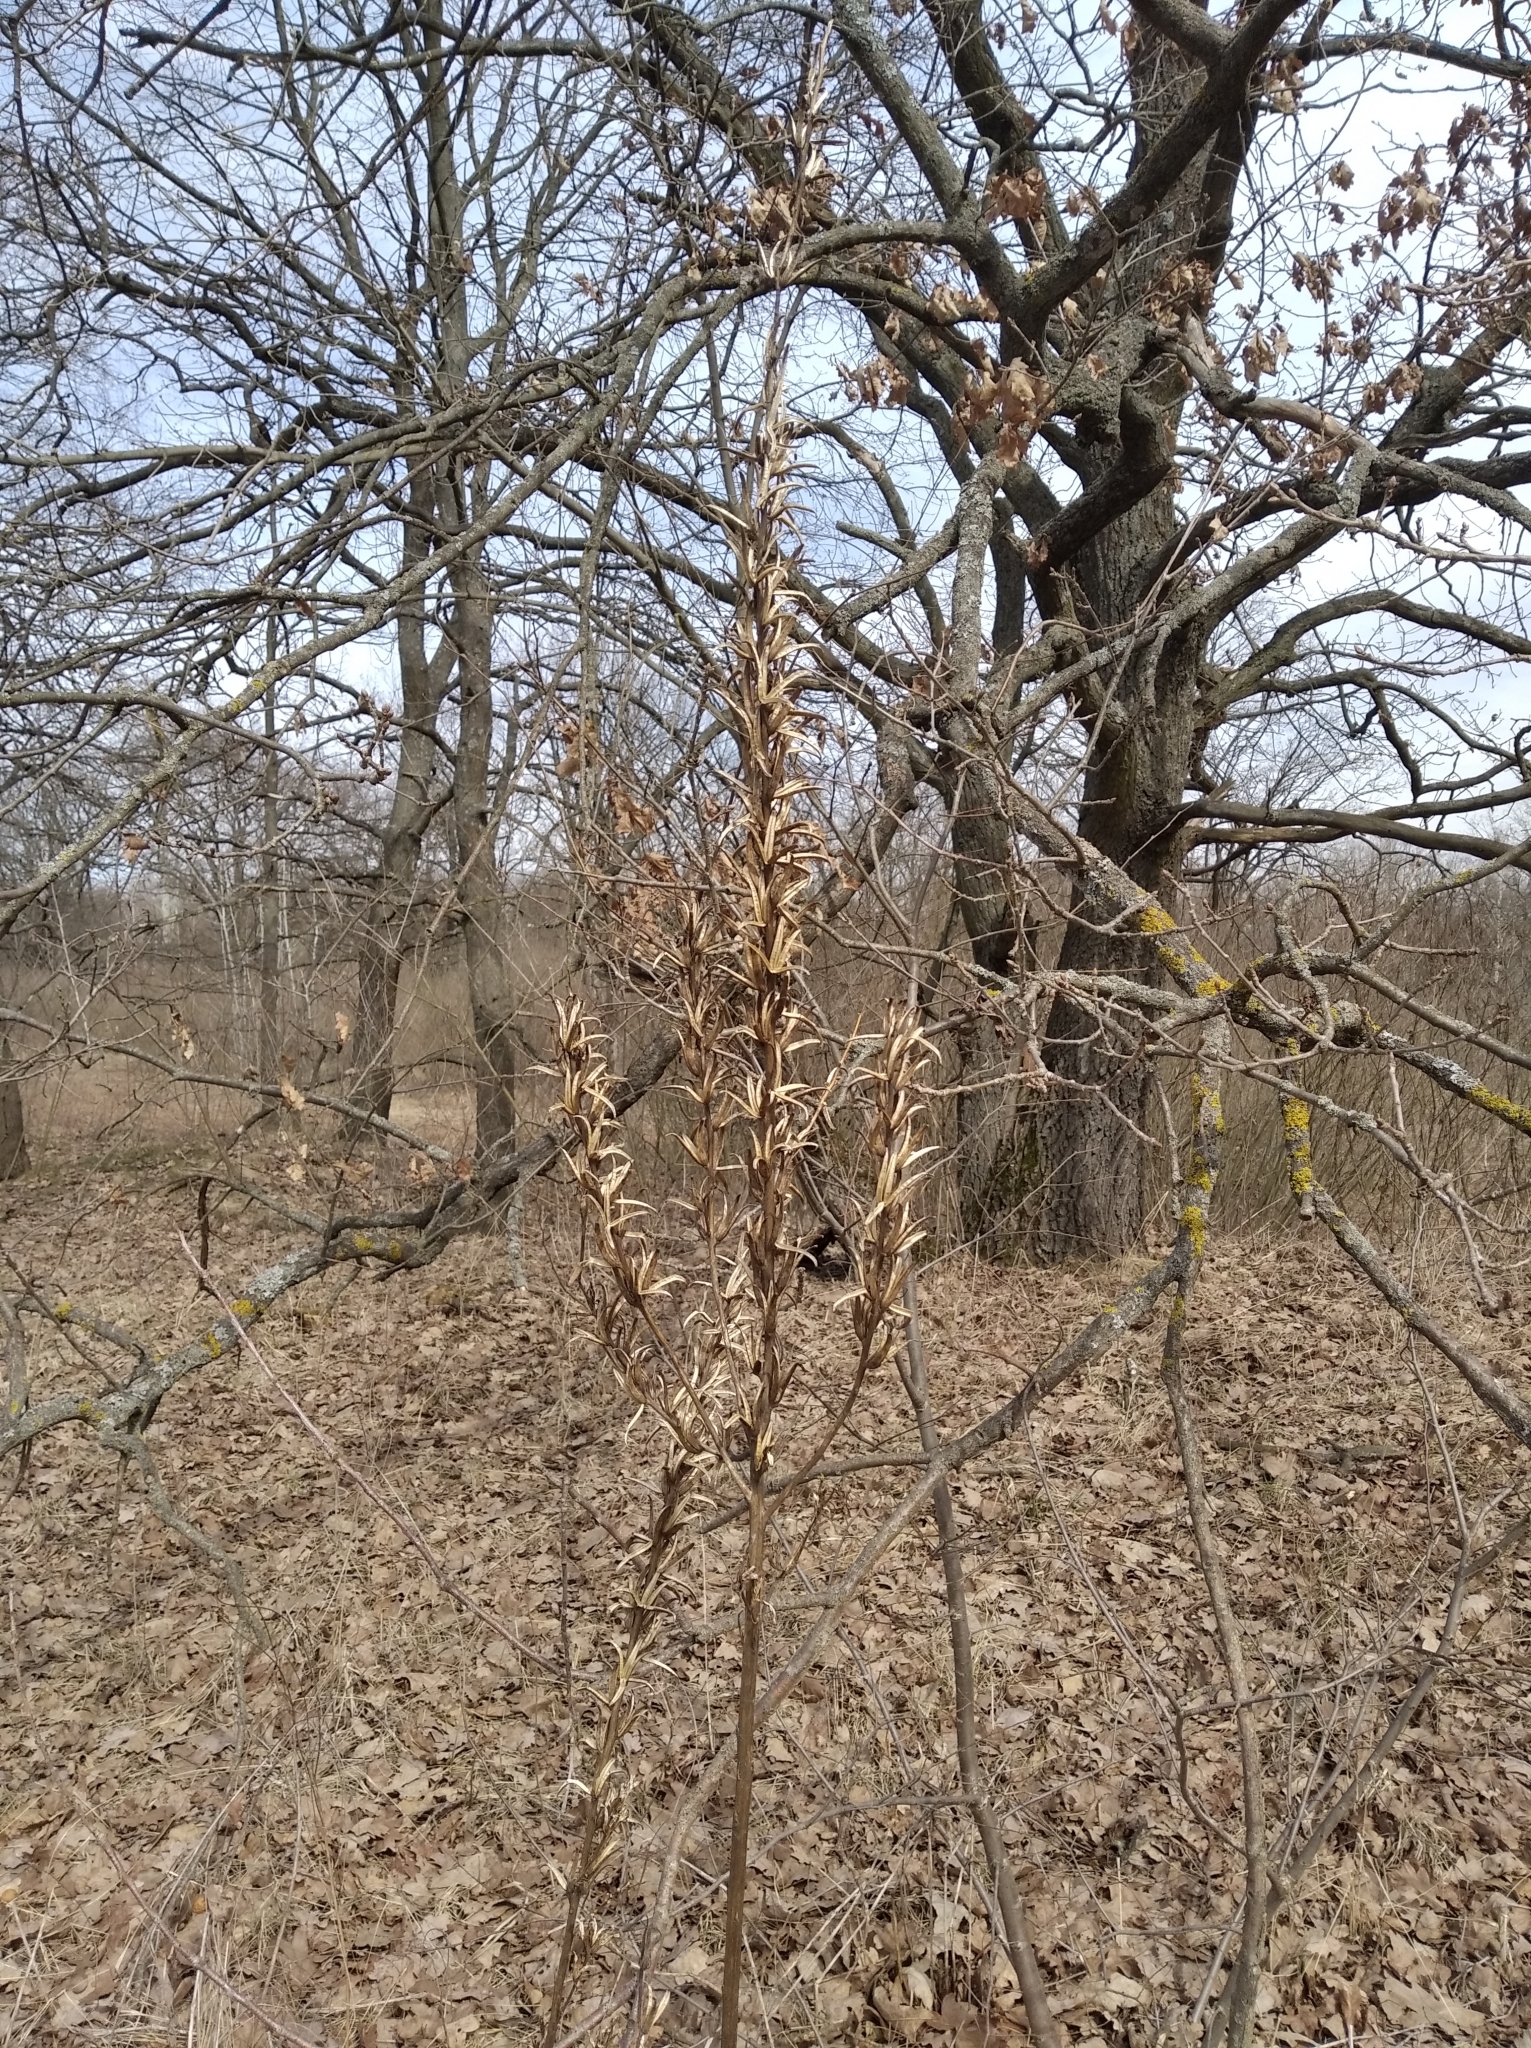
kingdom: Plantae
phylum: Tracheophyta
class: Magnoliopsida
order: Myrtales
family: Onagraceae
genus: Oenothera
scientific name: Oenothera biennis
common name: Common evening-primrose
